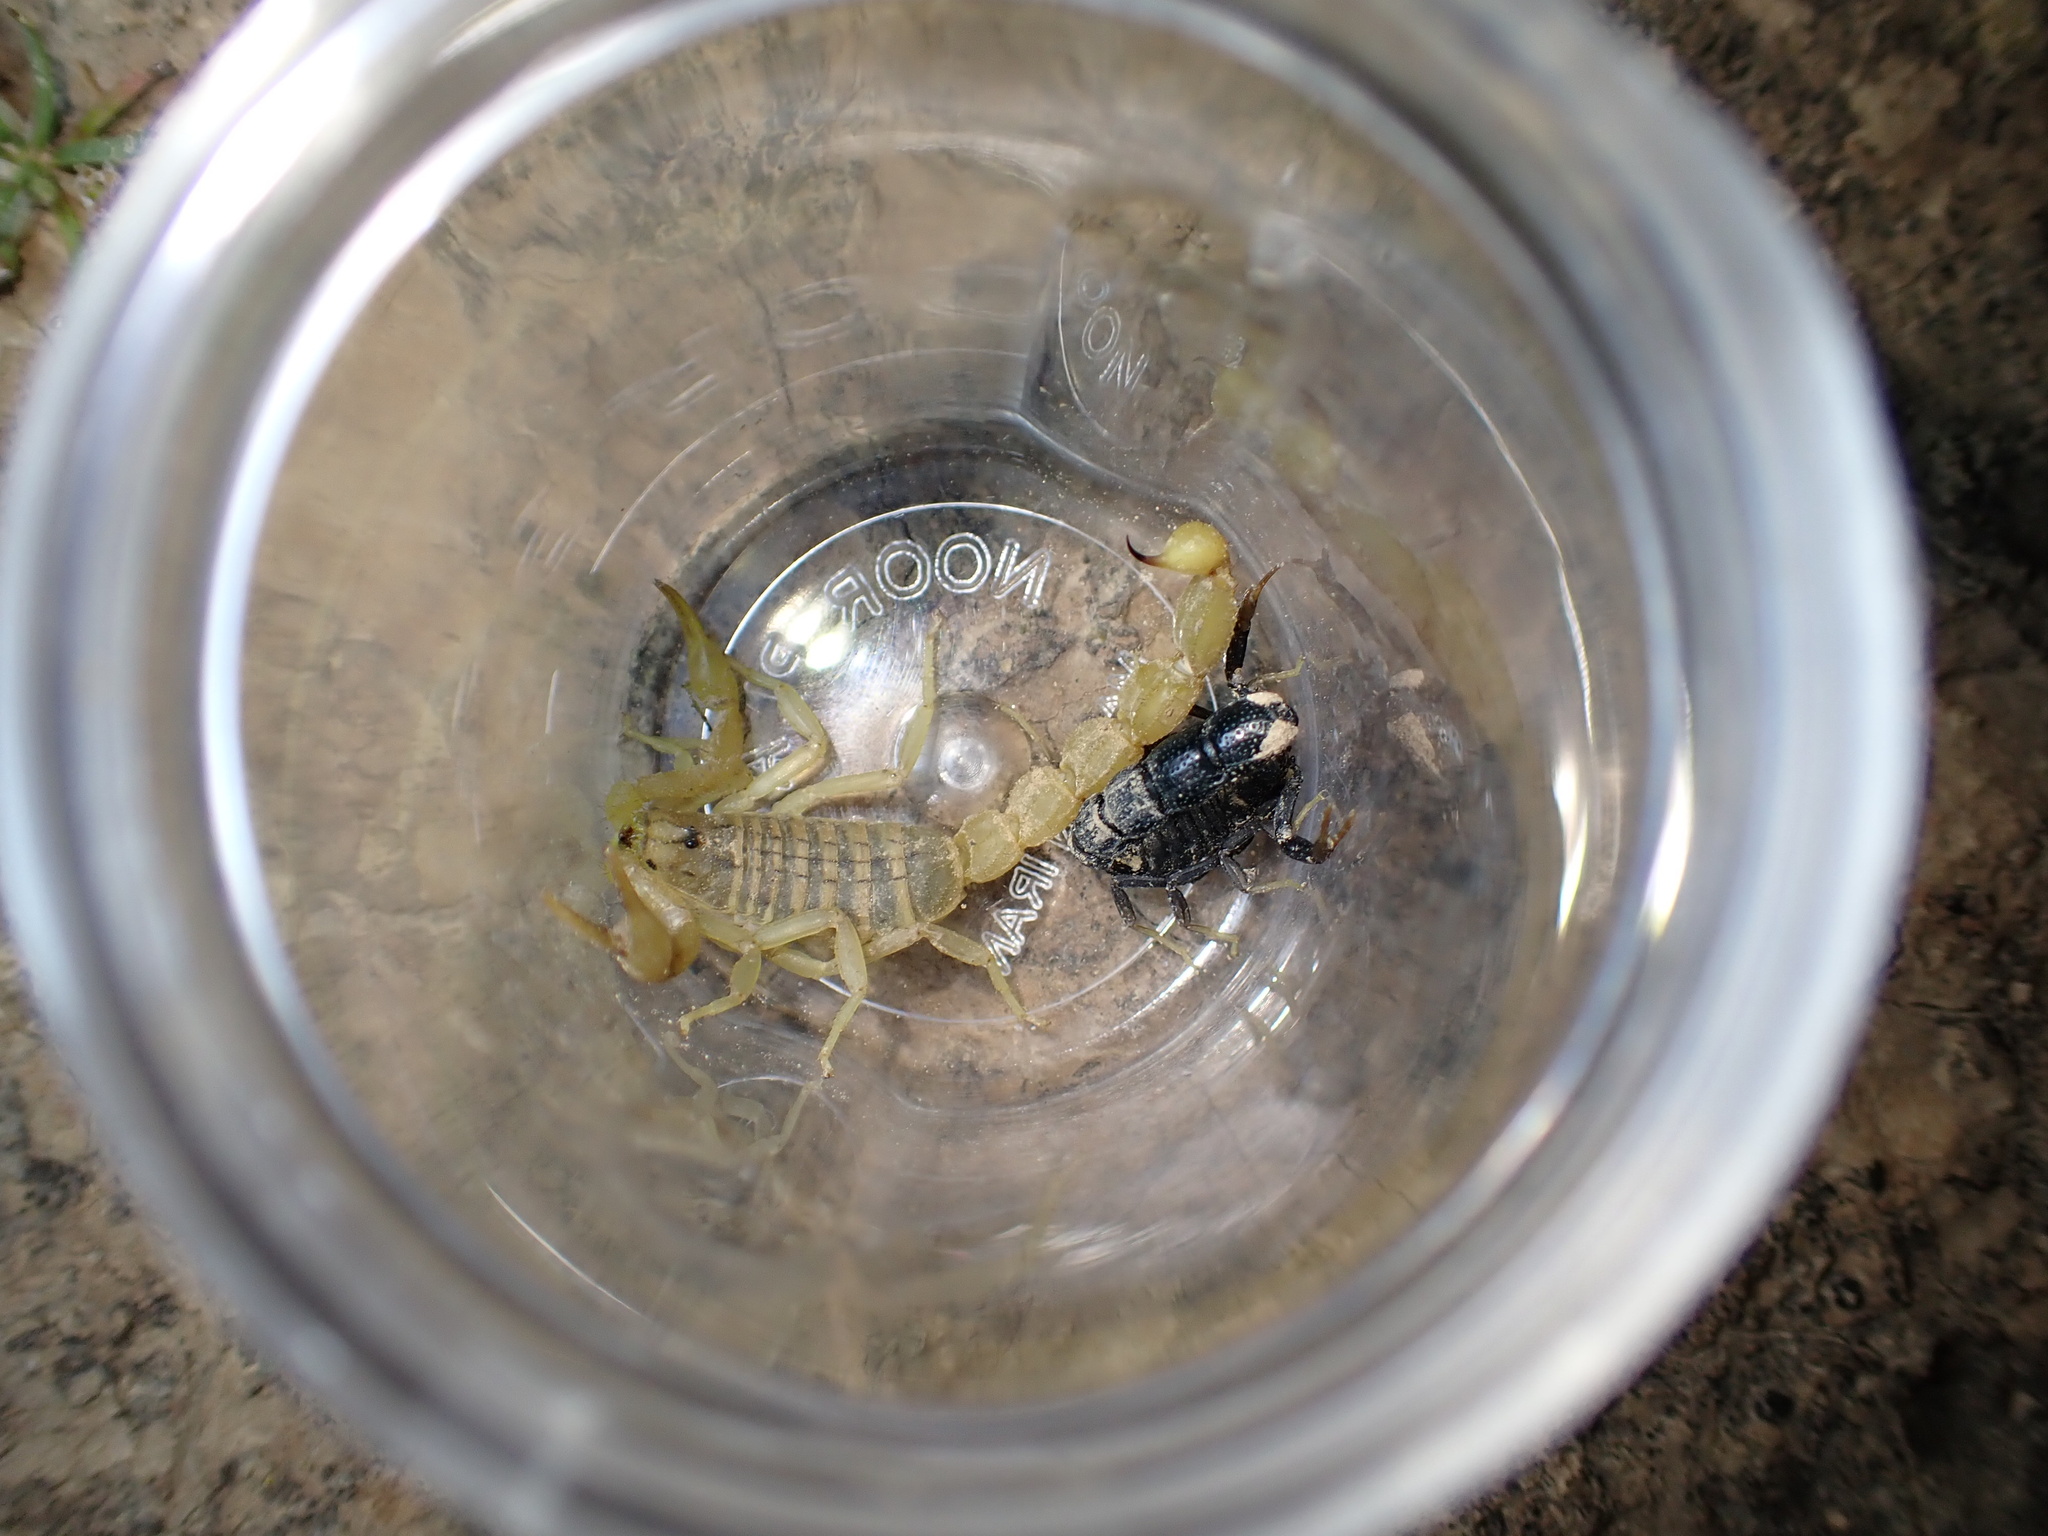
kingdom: Animalia
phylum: Arthropoda
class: Arachnida
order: Scorpiones
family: Buthidae
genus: Orthochirus
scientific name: Orthochirus mesopotamicus
